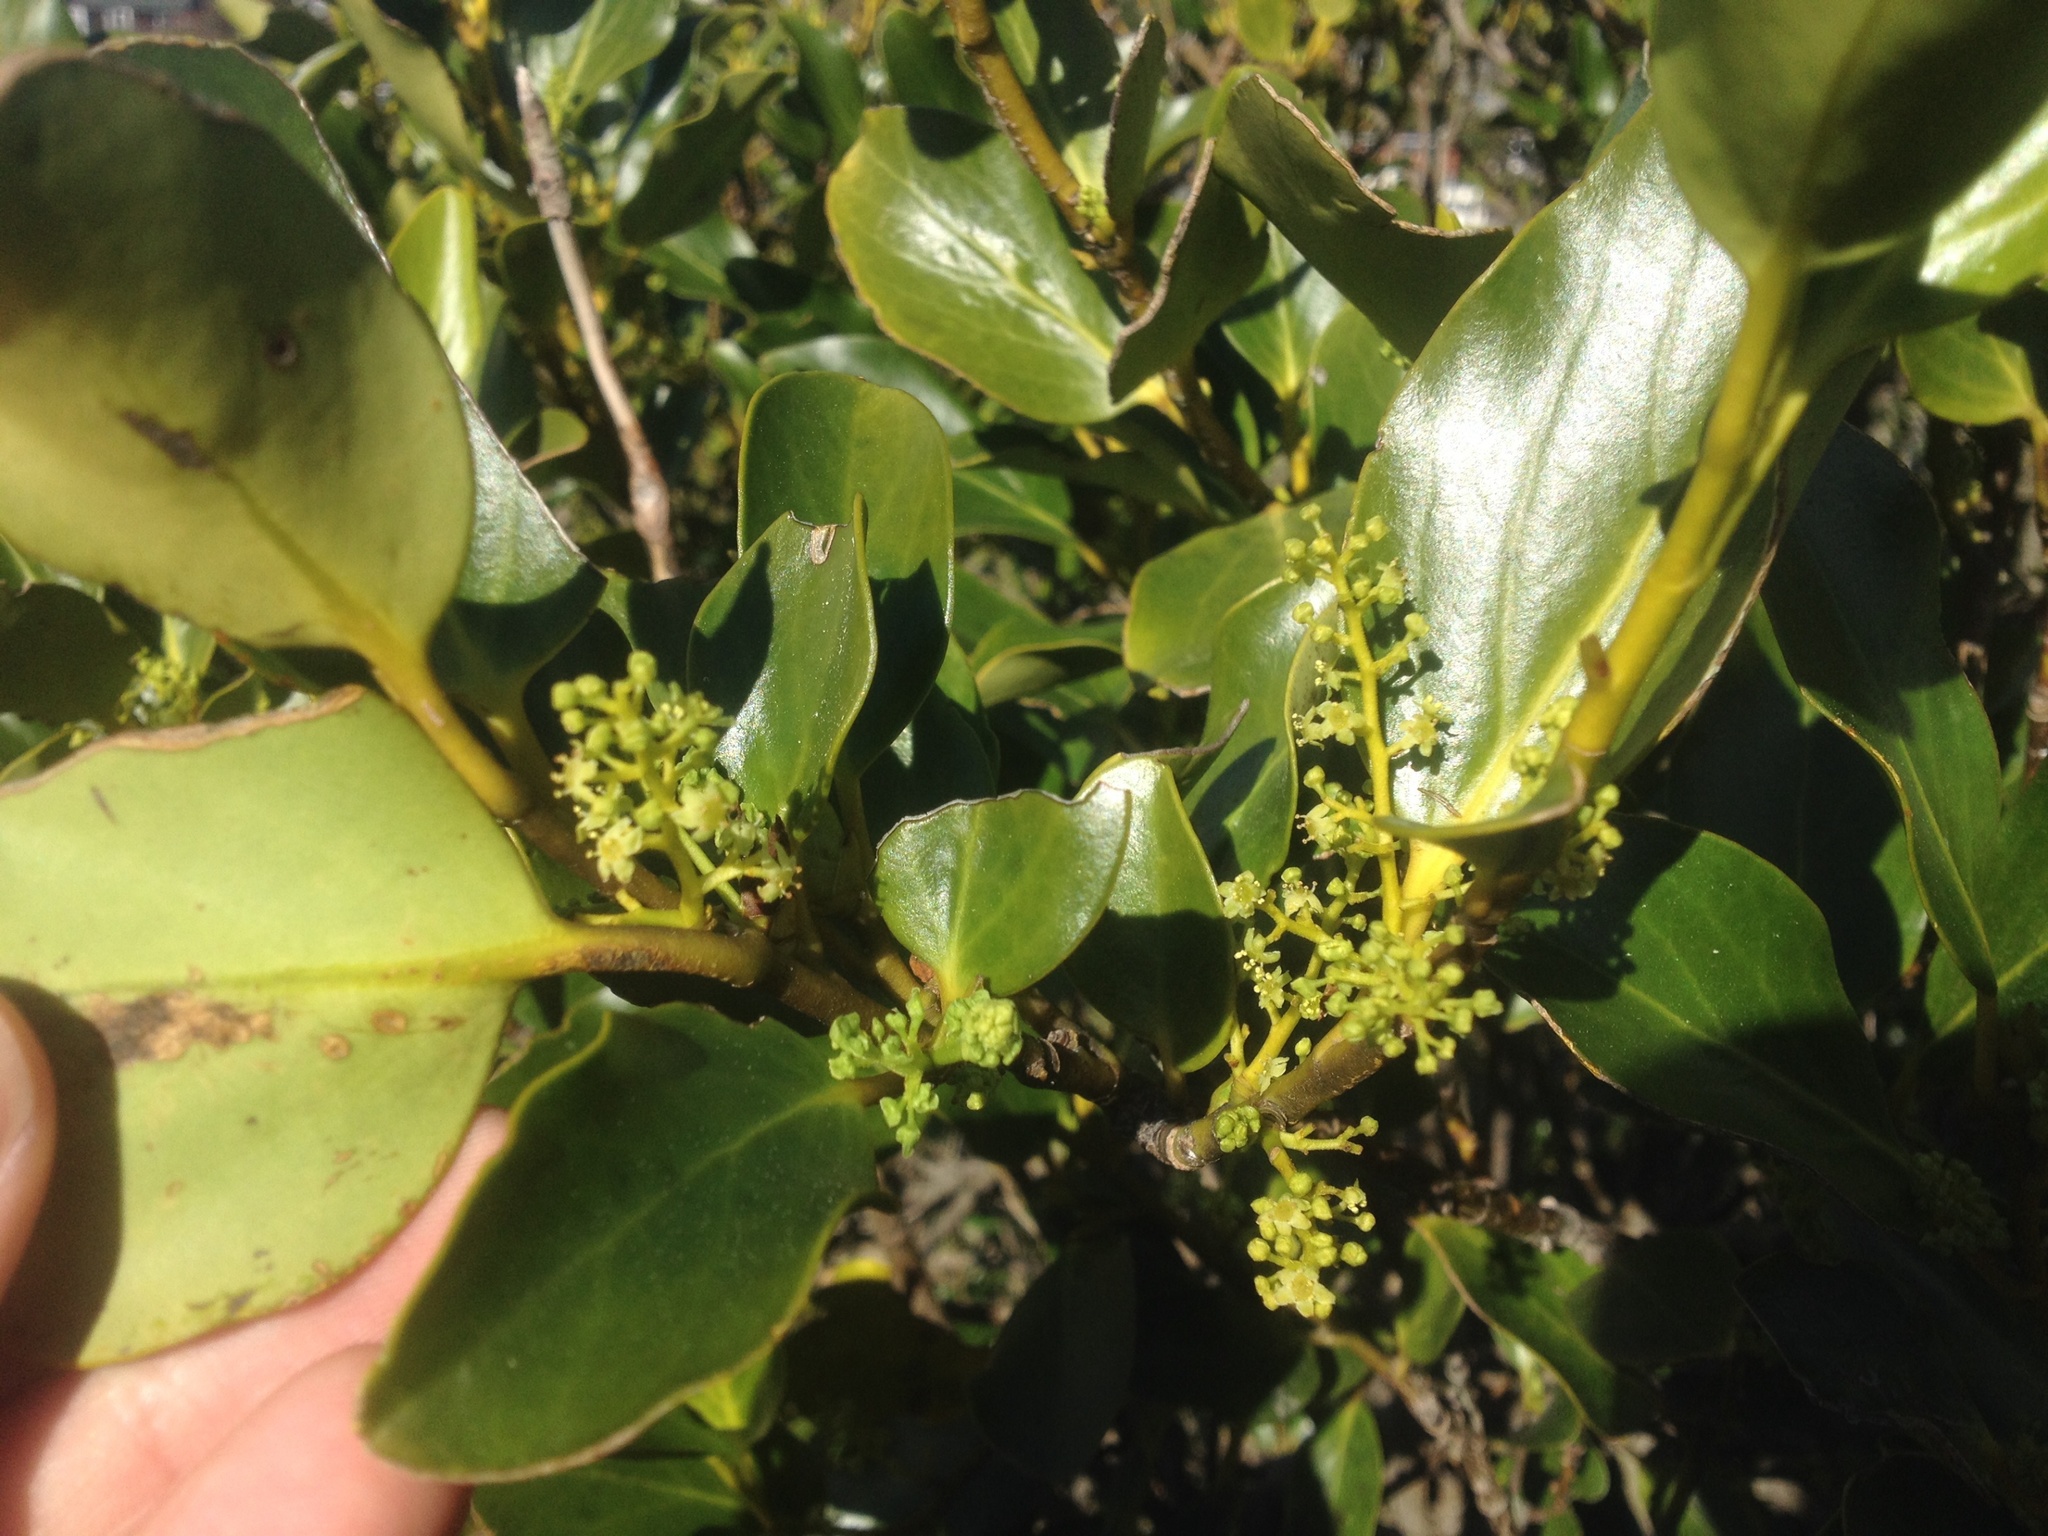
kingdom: Plantae
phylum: Tracheophyta
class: Magnoliopsida
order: Apiales
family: Griseliniaceae
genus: Griselinia
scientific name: Griselinia littoralis
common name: New zealand broadleaf
